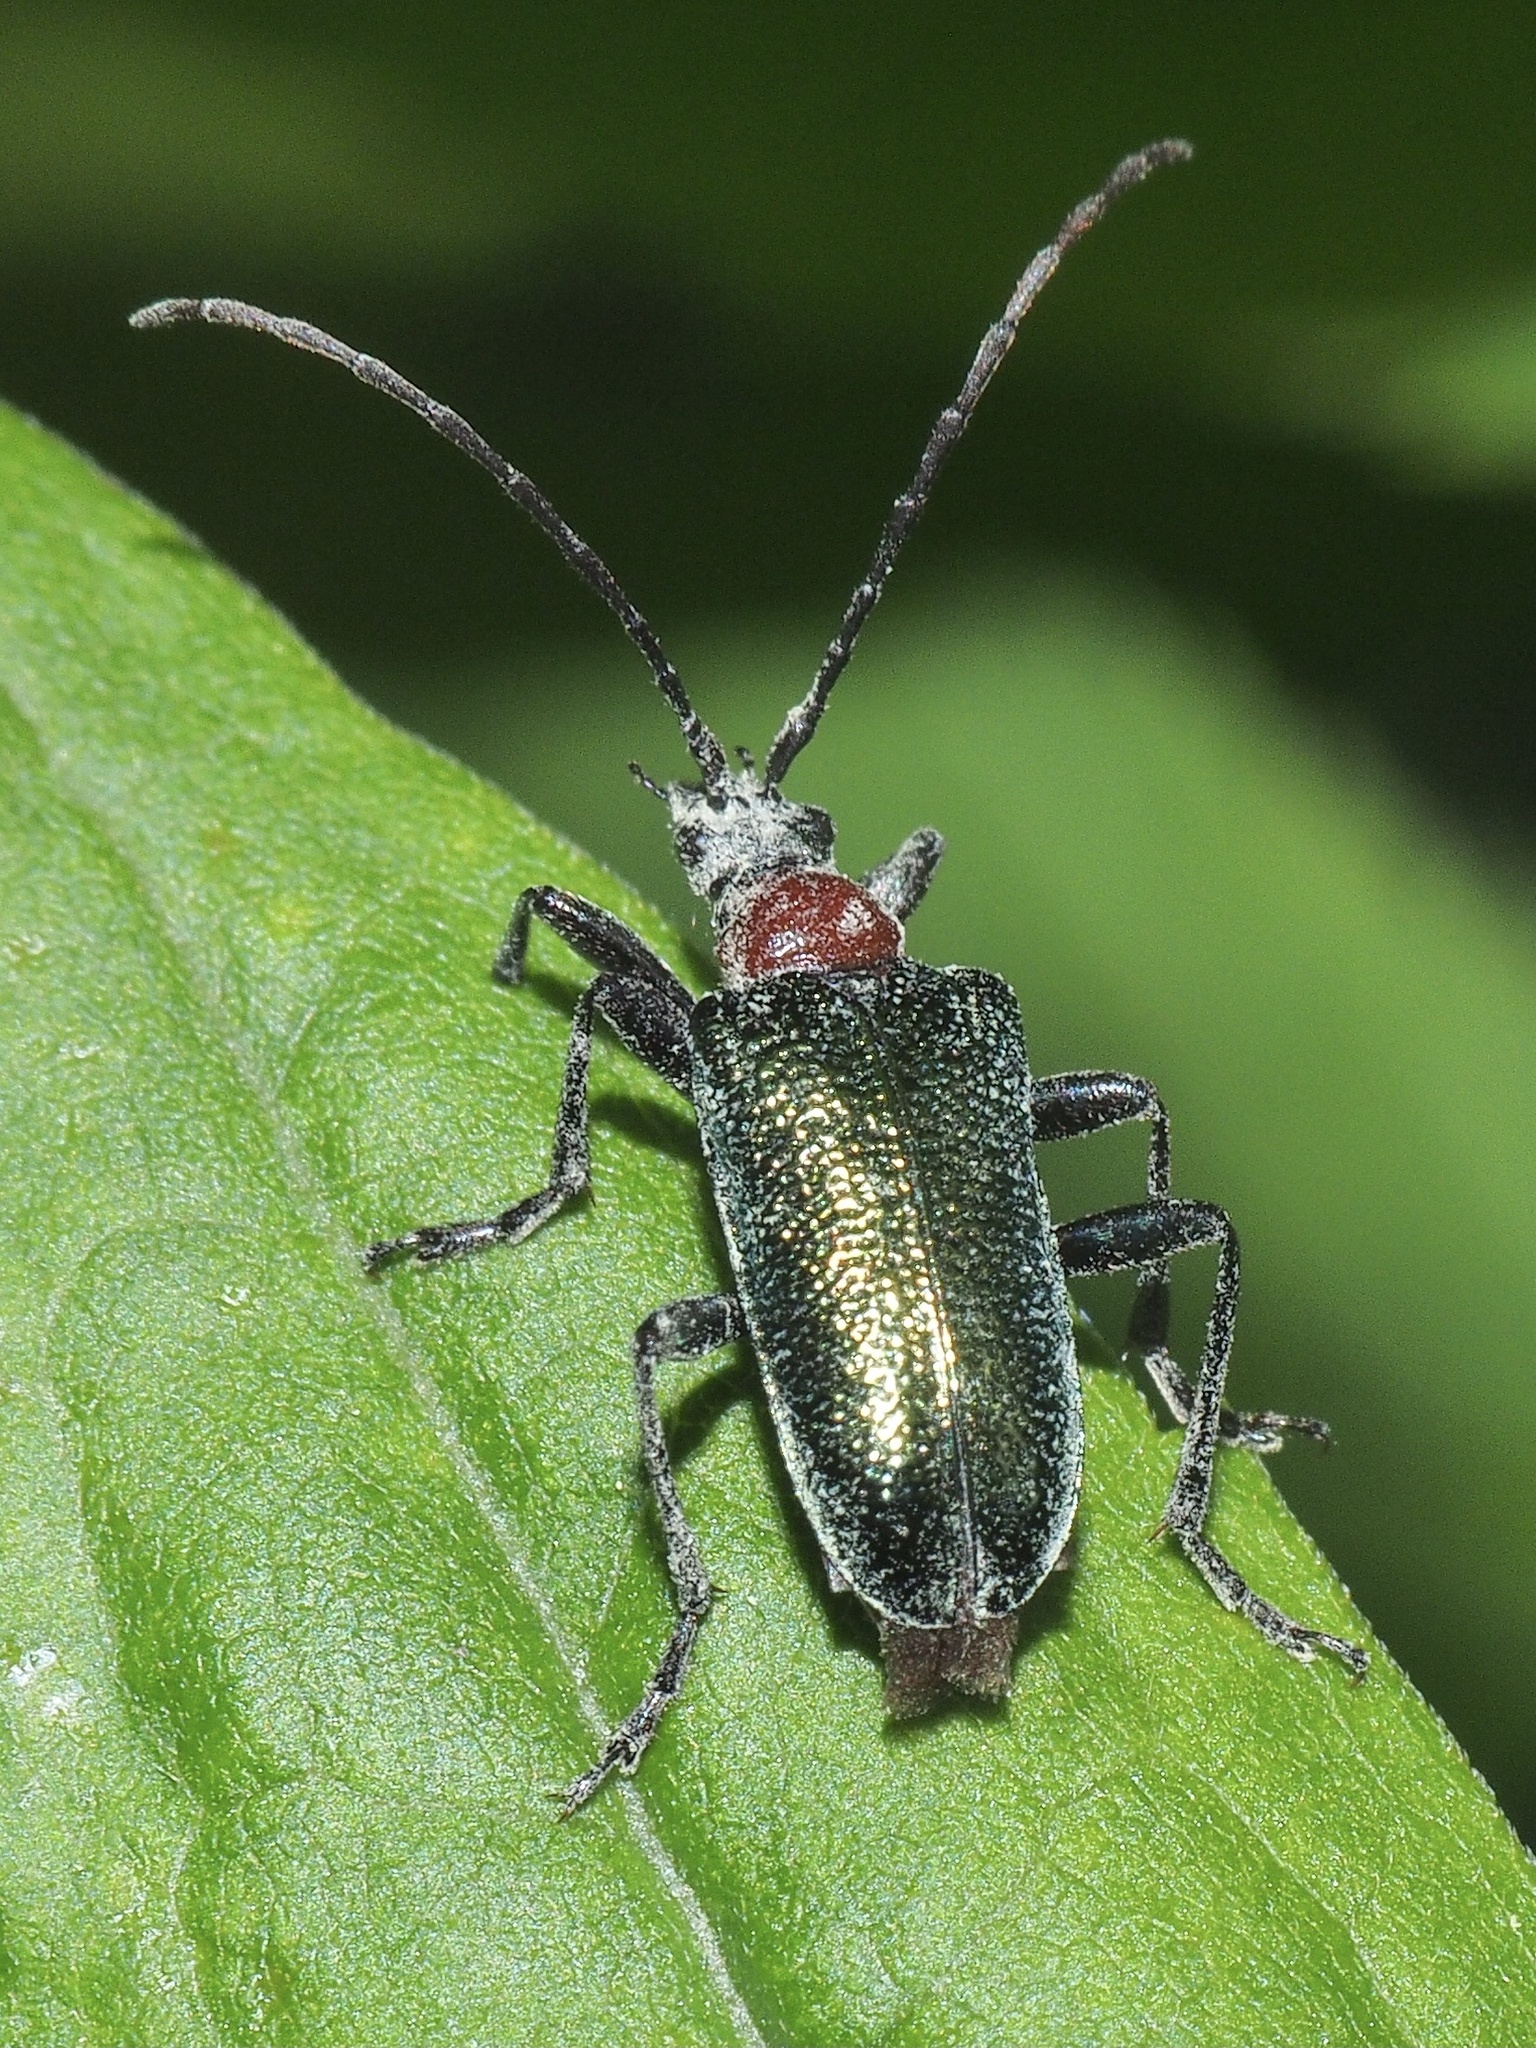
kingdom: Animalia
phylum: Arthropoda
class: Insecta
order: Coleoptera
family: Cerambycidae
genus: Gaurotes
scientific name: Gaurotes virginea
